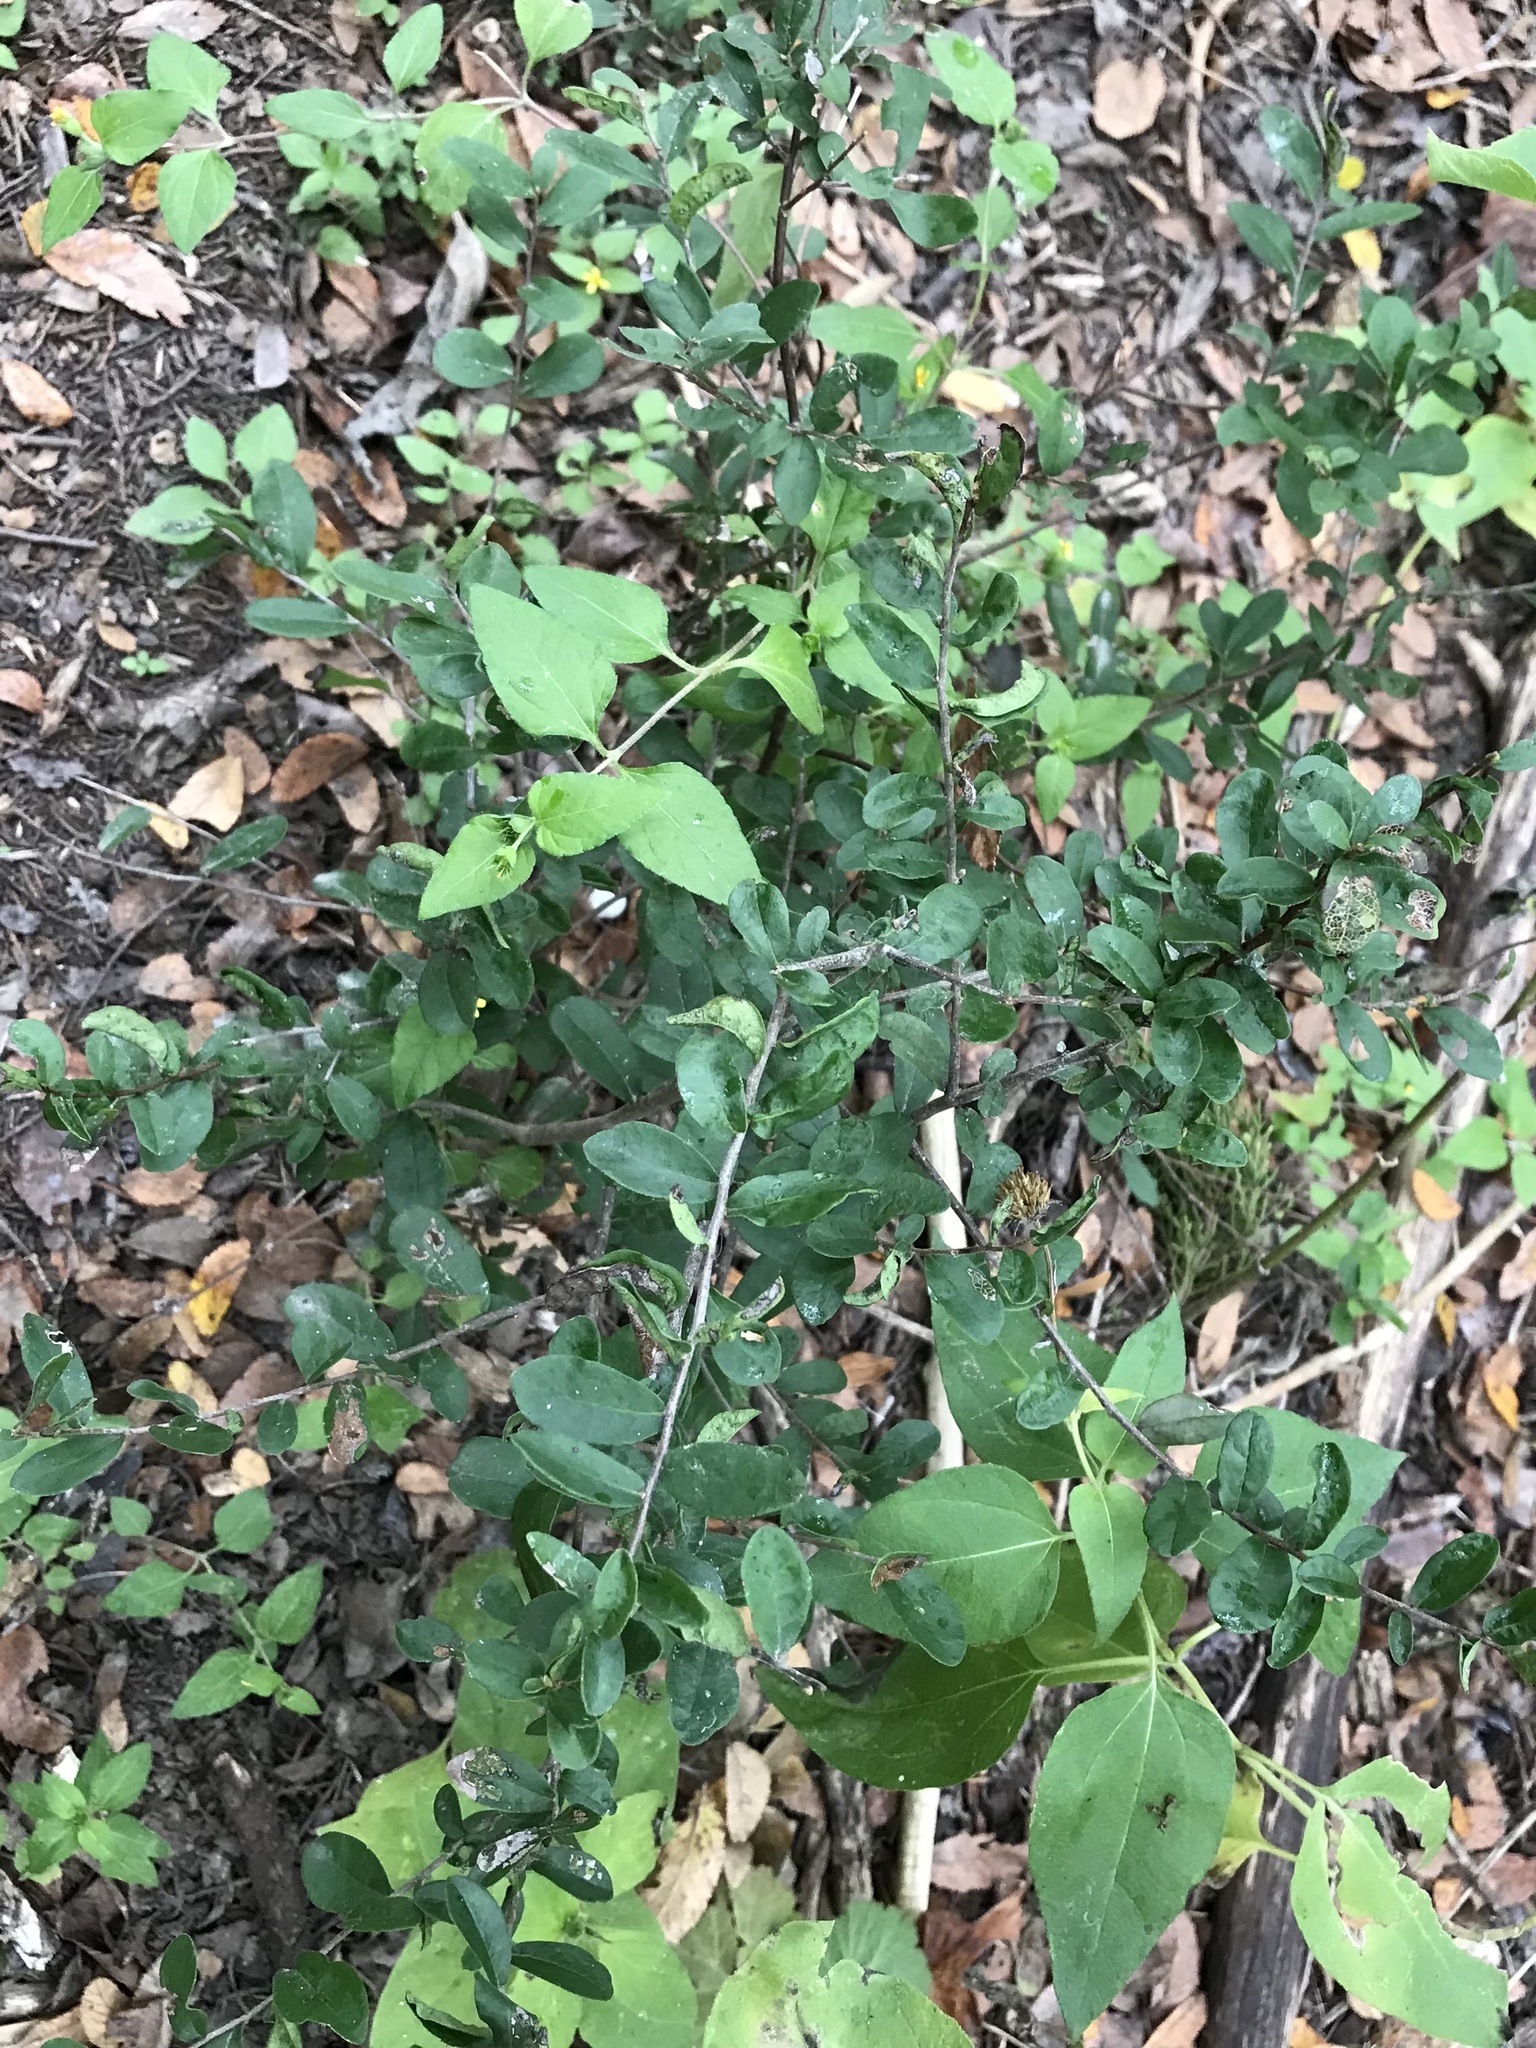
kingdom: Plantae
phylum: Tracheophyta
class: Magnoliopsida
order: Ericales
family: Ebenaceae
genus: Diospyros
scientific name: Diospyros texana
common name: Texas persimmon
